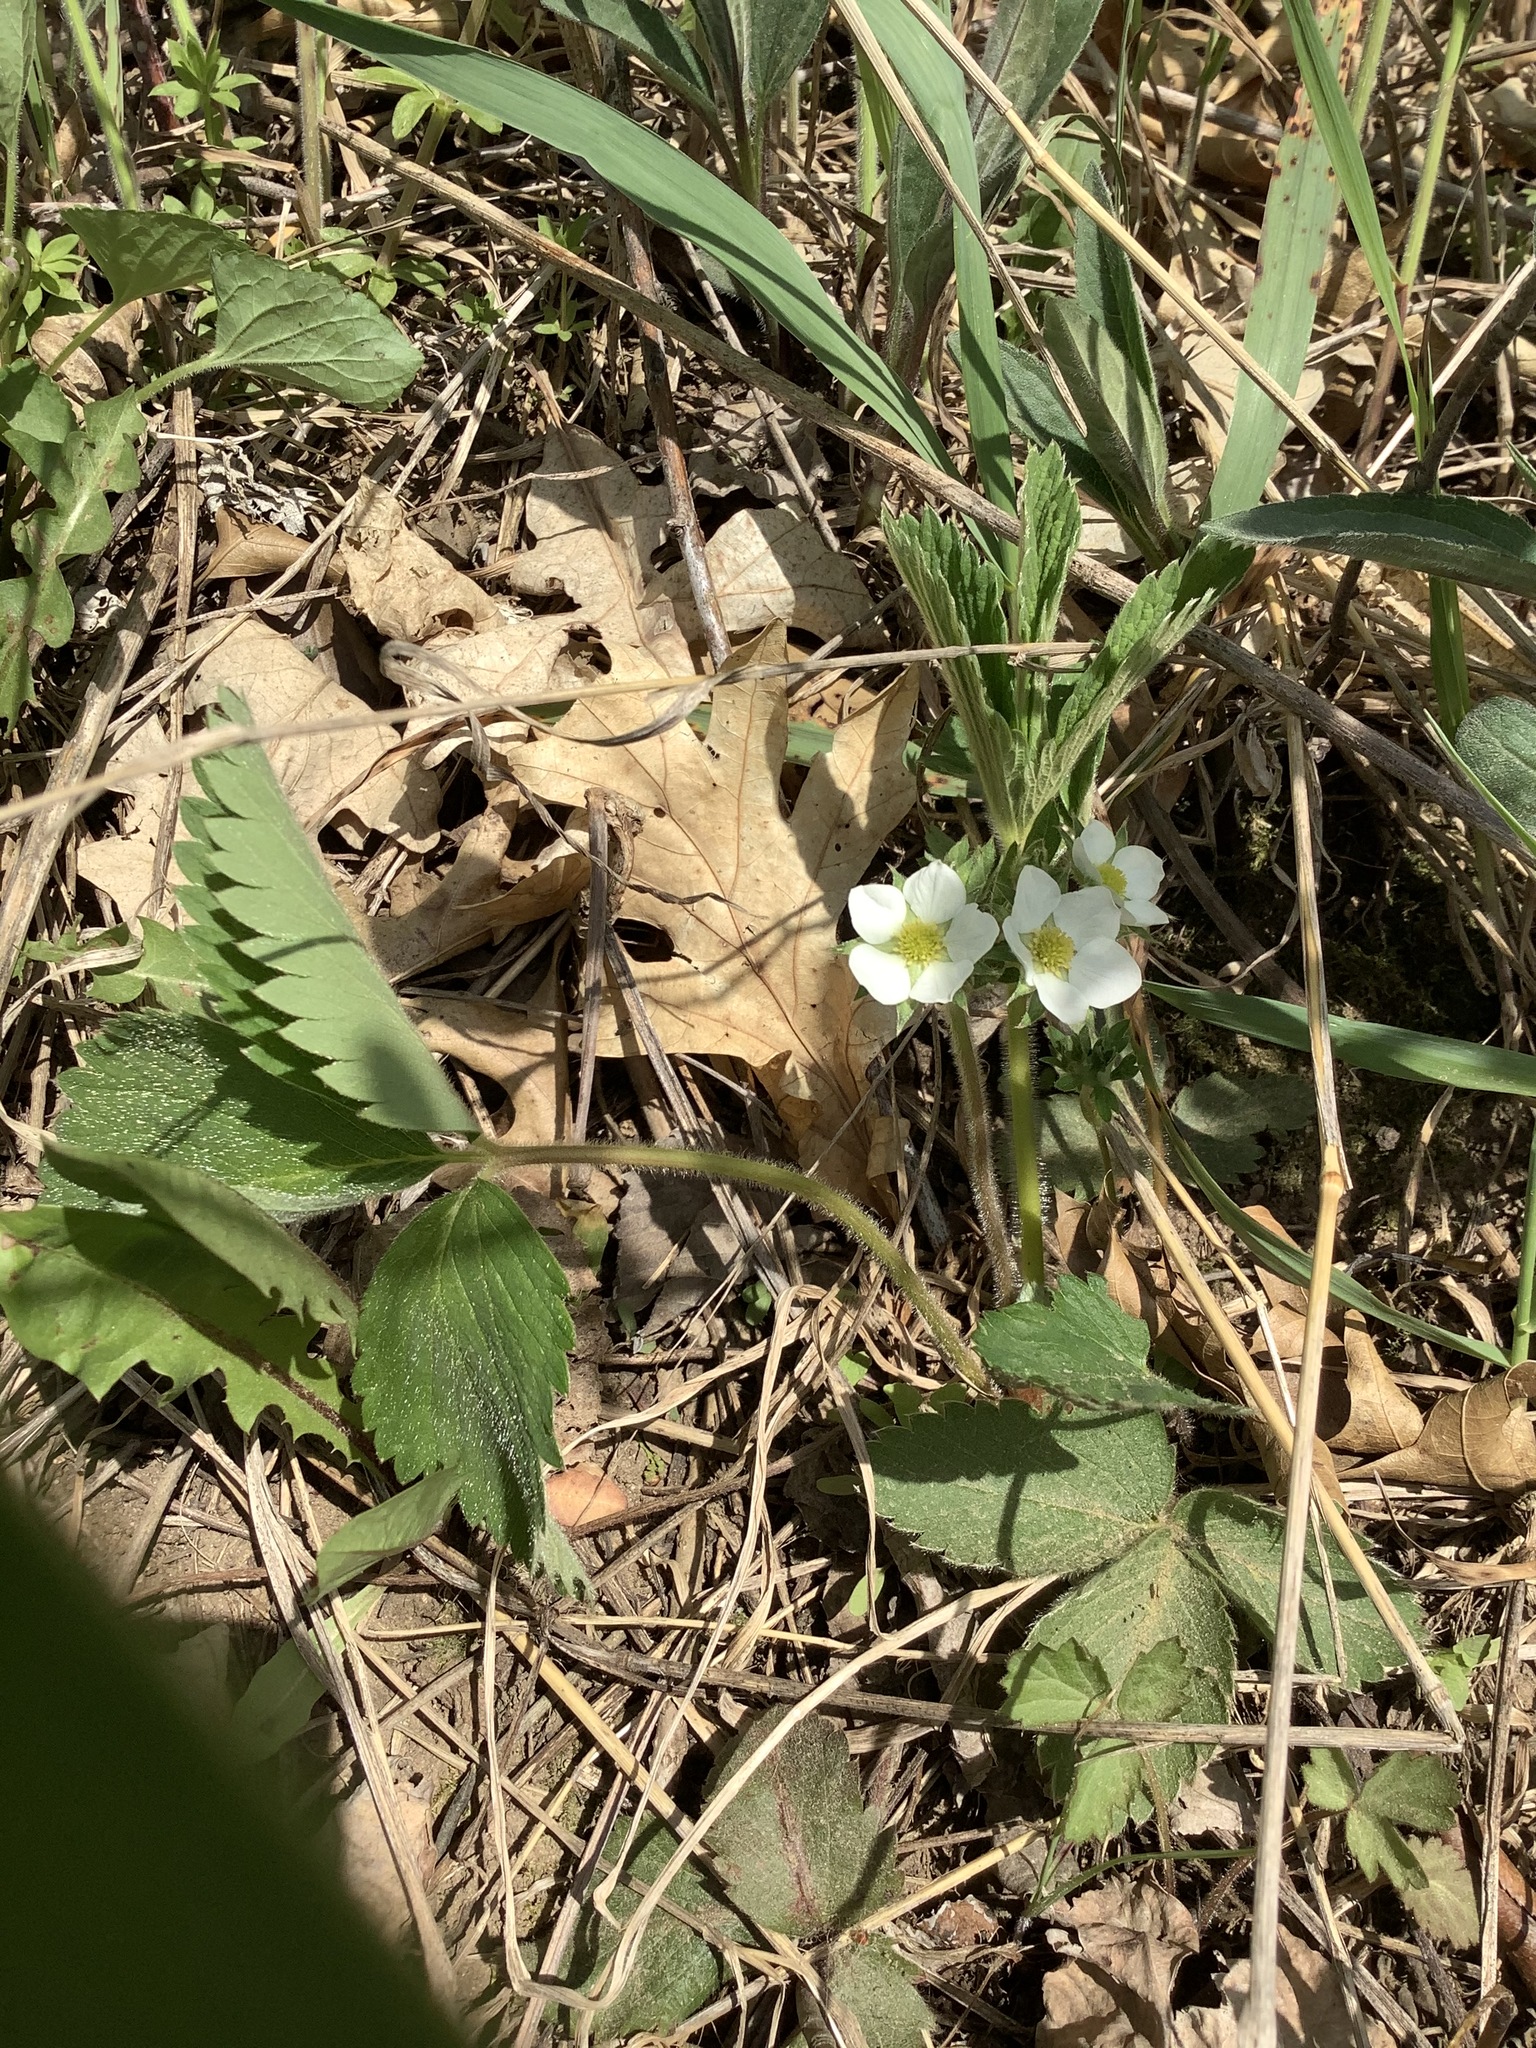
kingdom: Plantae
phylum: Tracheophyta
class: Magnoliopsida
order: Rosales
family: Rosaceae
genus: Fragaria
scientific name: Fragaria virginiana
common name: Thickleaved wild strawberry
